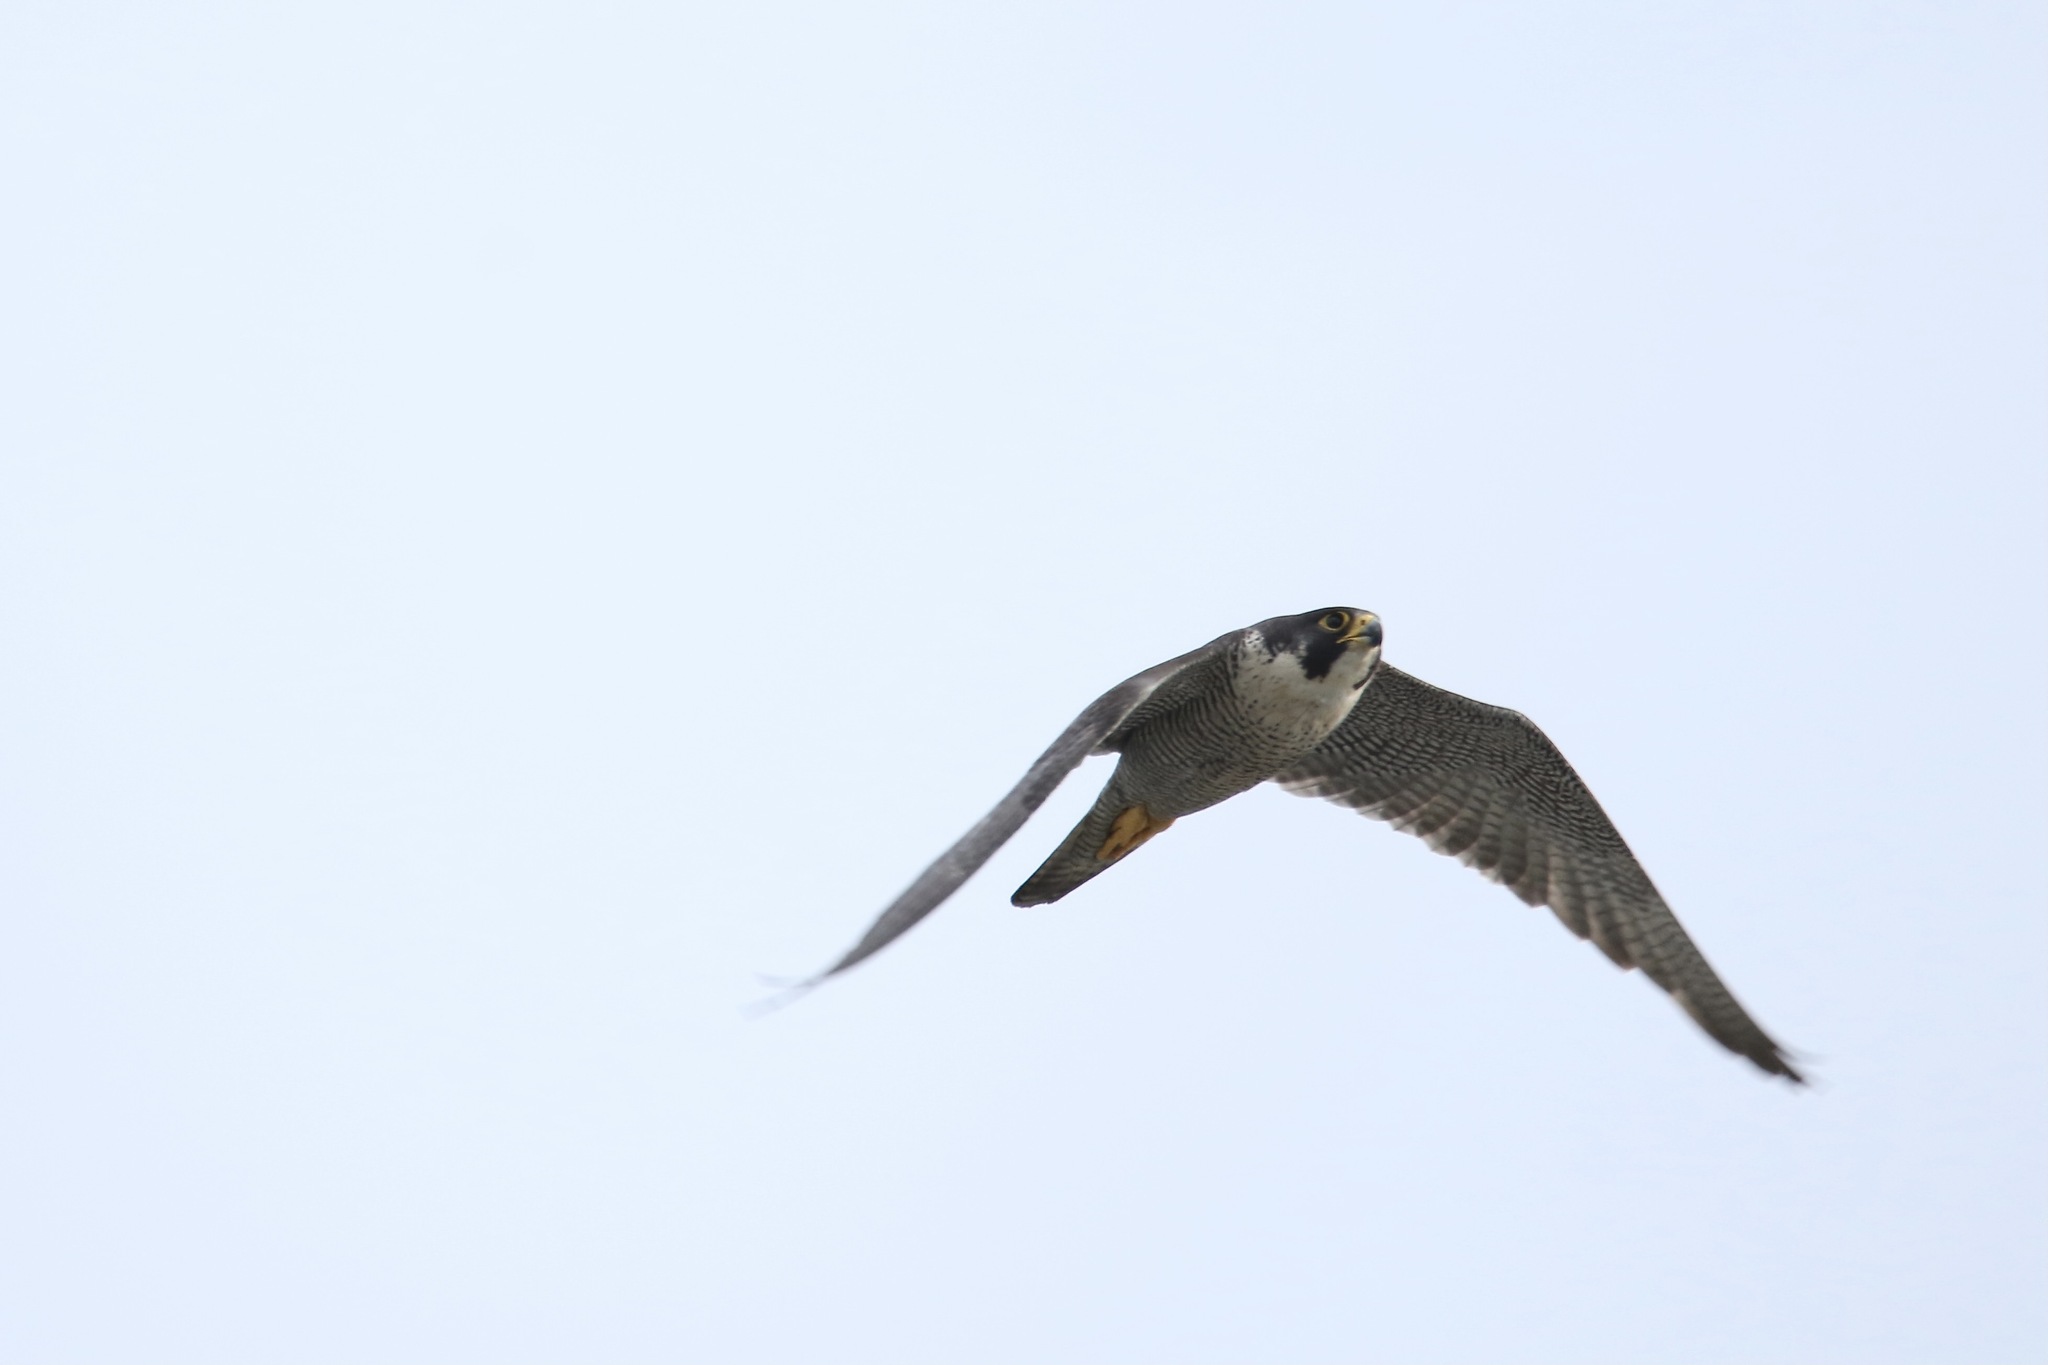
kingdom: Animalia
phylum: Chordata
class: Aves
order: Falconiformes
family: Falconidae
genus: Falco
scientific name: Falco peregrinus
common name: Peregrine falcon
